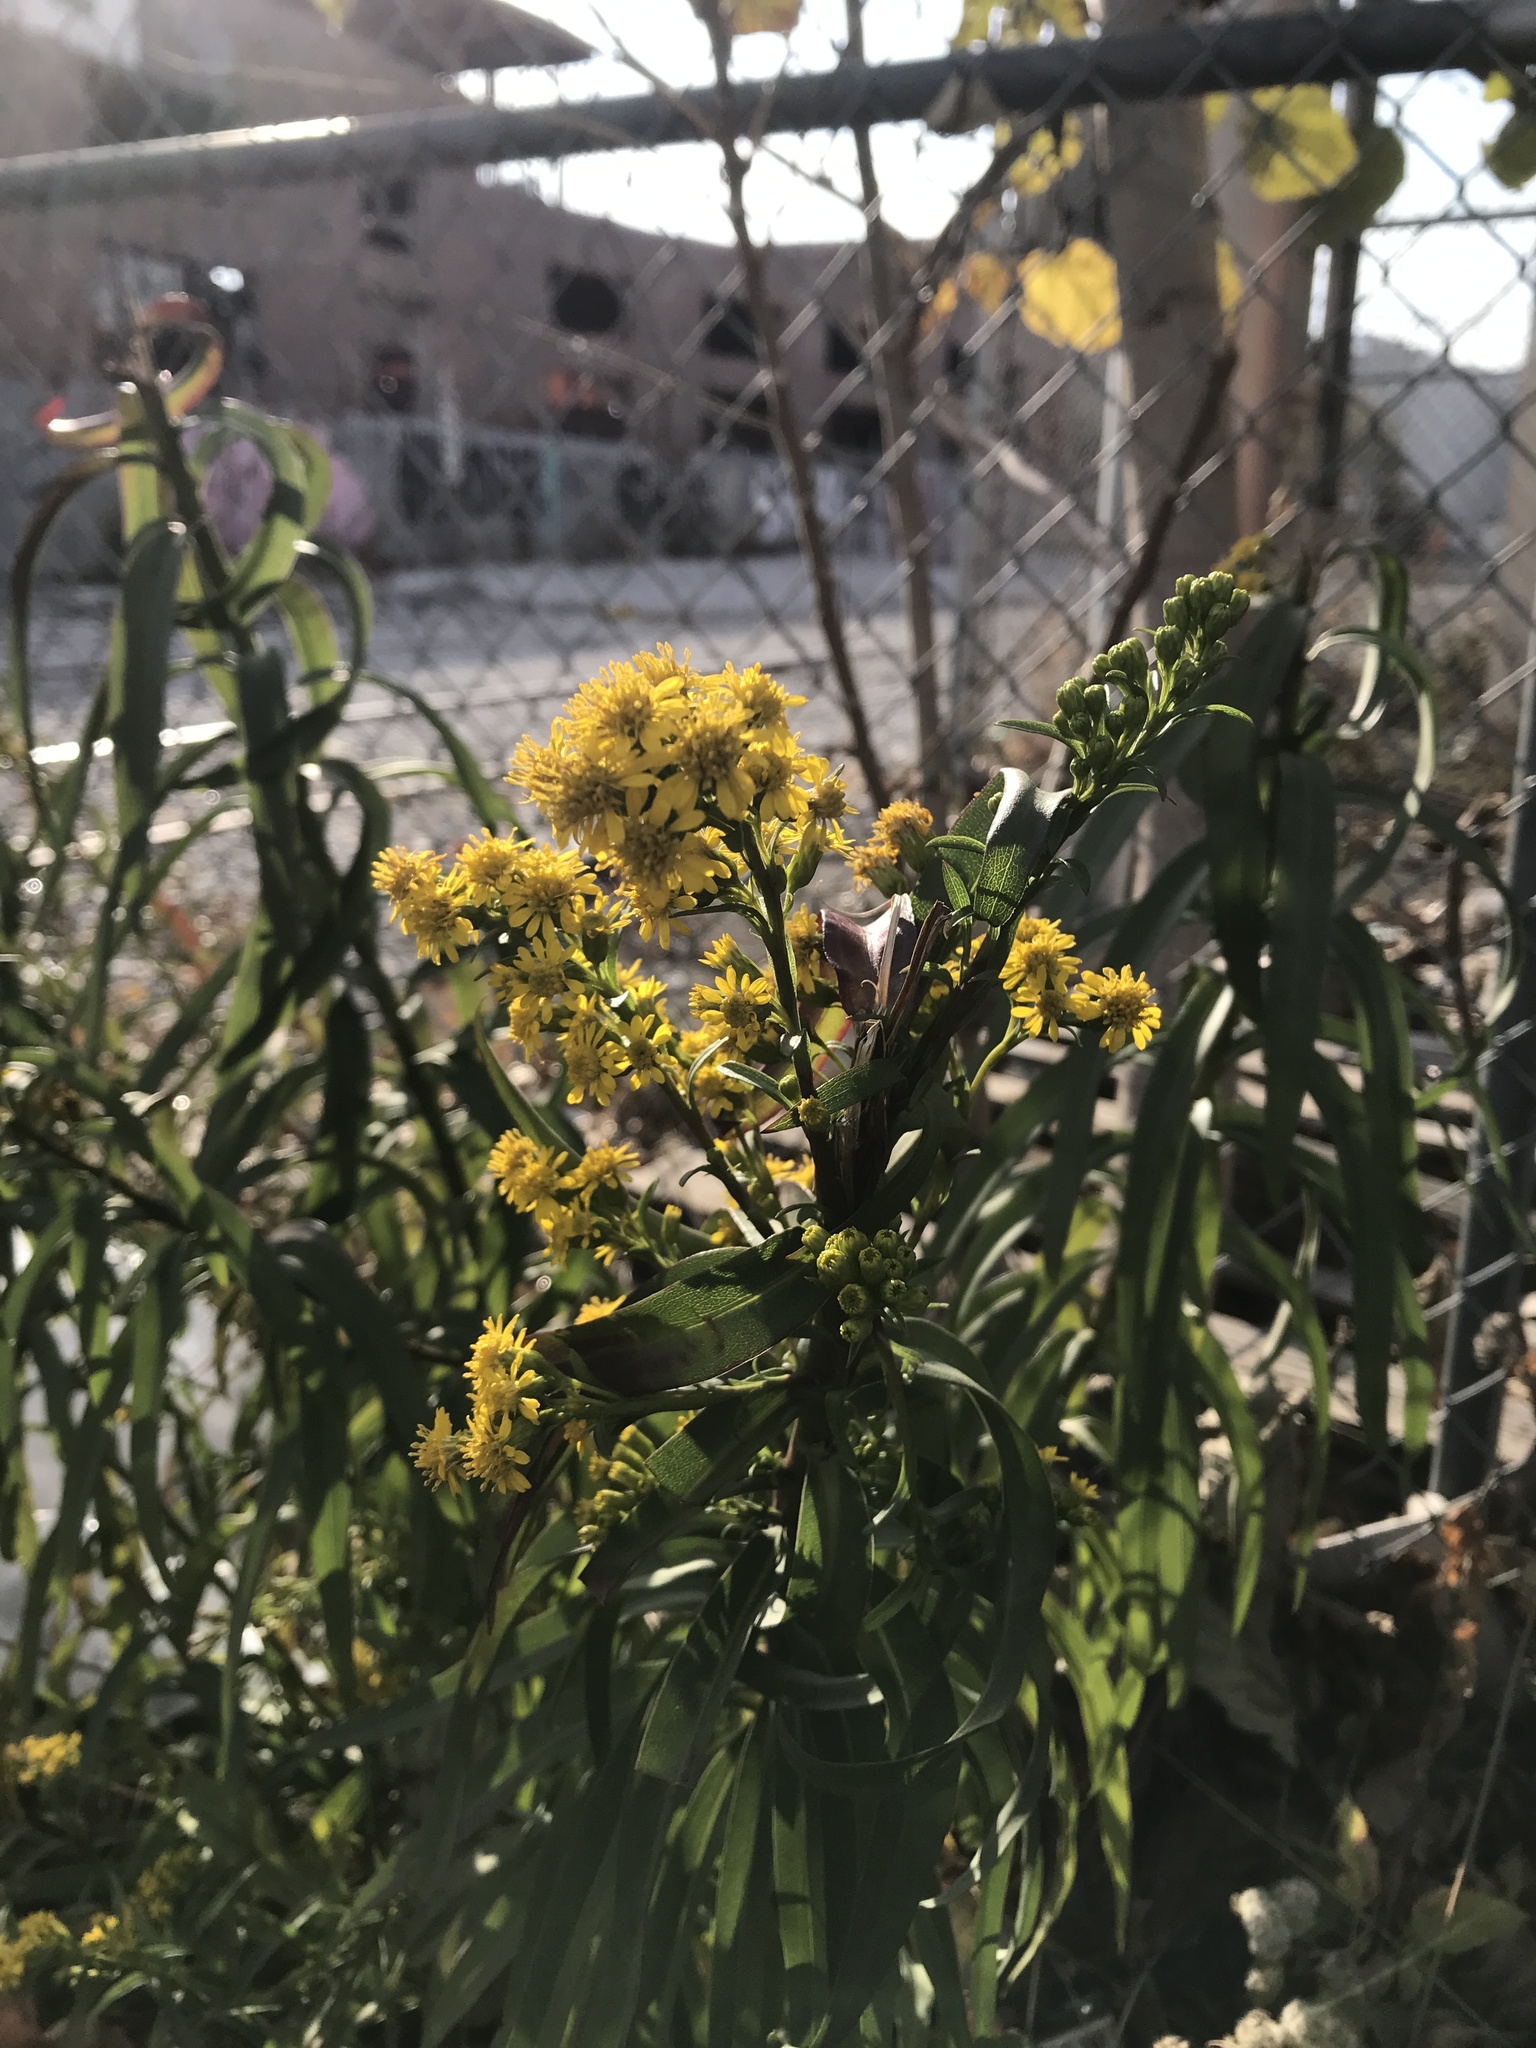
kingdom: Plantae
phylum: Tracheophyta
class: Magnoliopsida
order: Asterales
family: Asteraceae
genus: Solidago
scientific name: Solidago sempervirens
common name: Salt-marsh goldenrod
